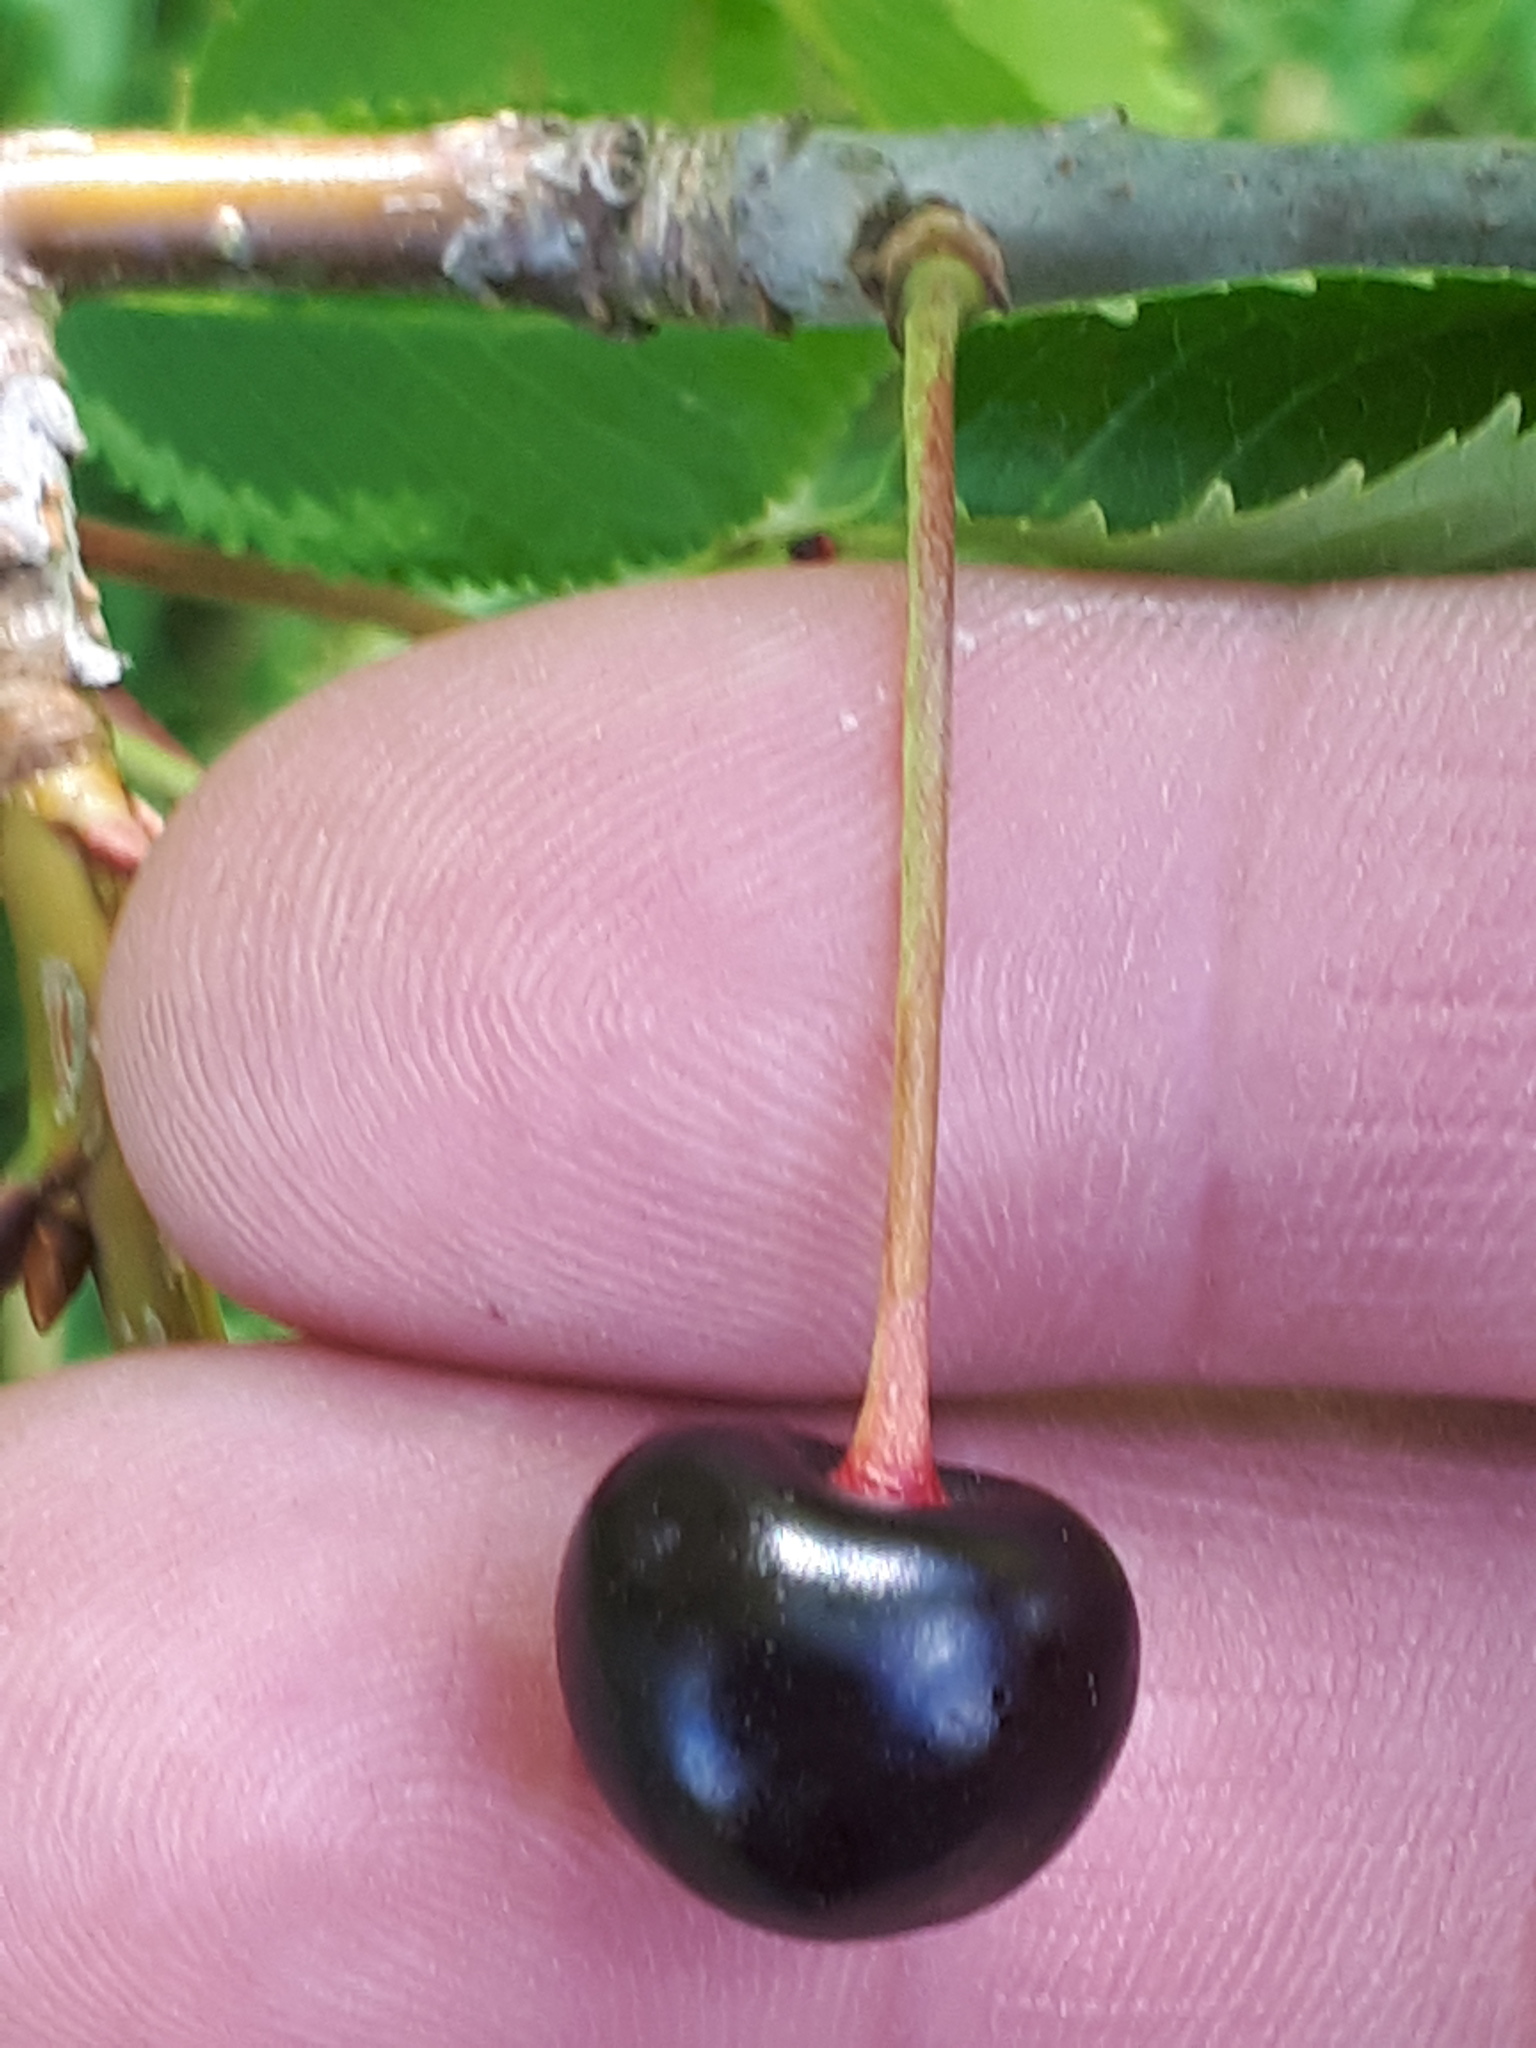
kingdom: Plantae
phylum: Tracheophyta
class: Magnoliopsida
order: Rosales
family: Rosaceae
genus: Prunus
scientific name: Prunus avium
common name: Sweet cherry
